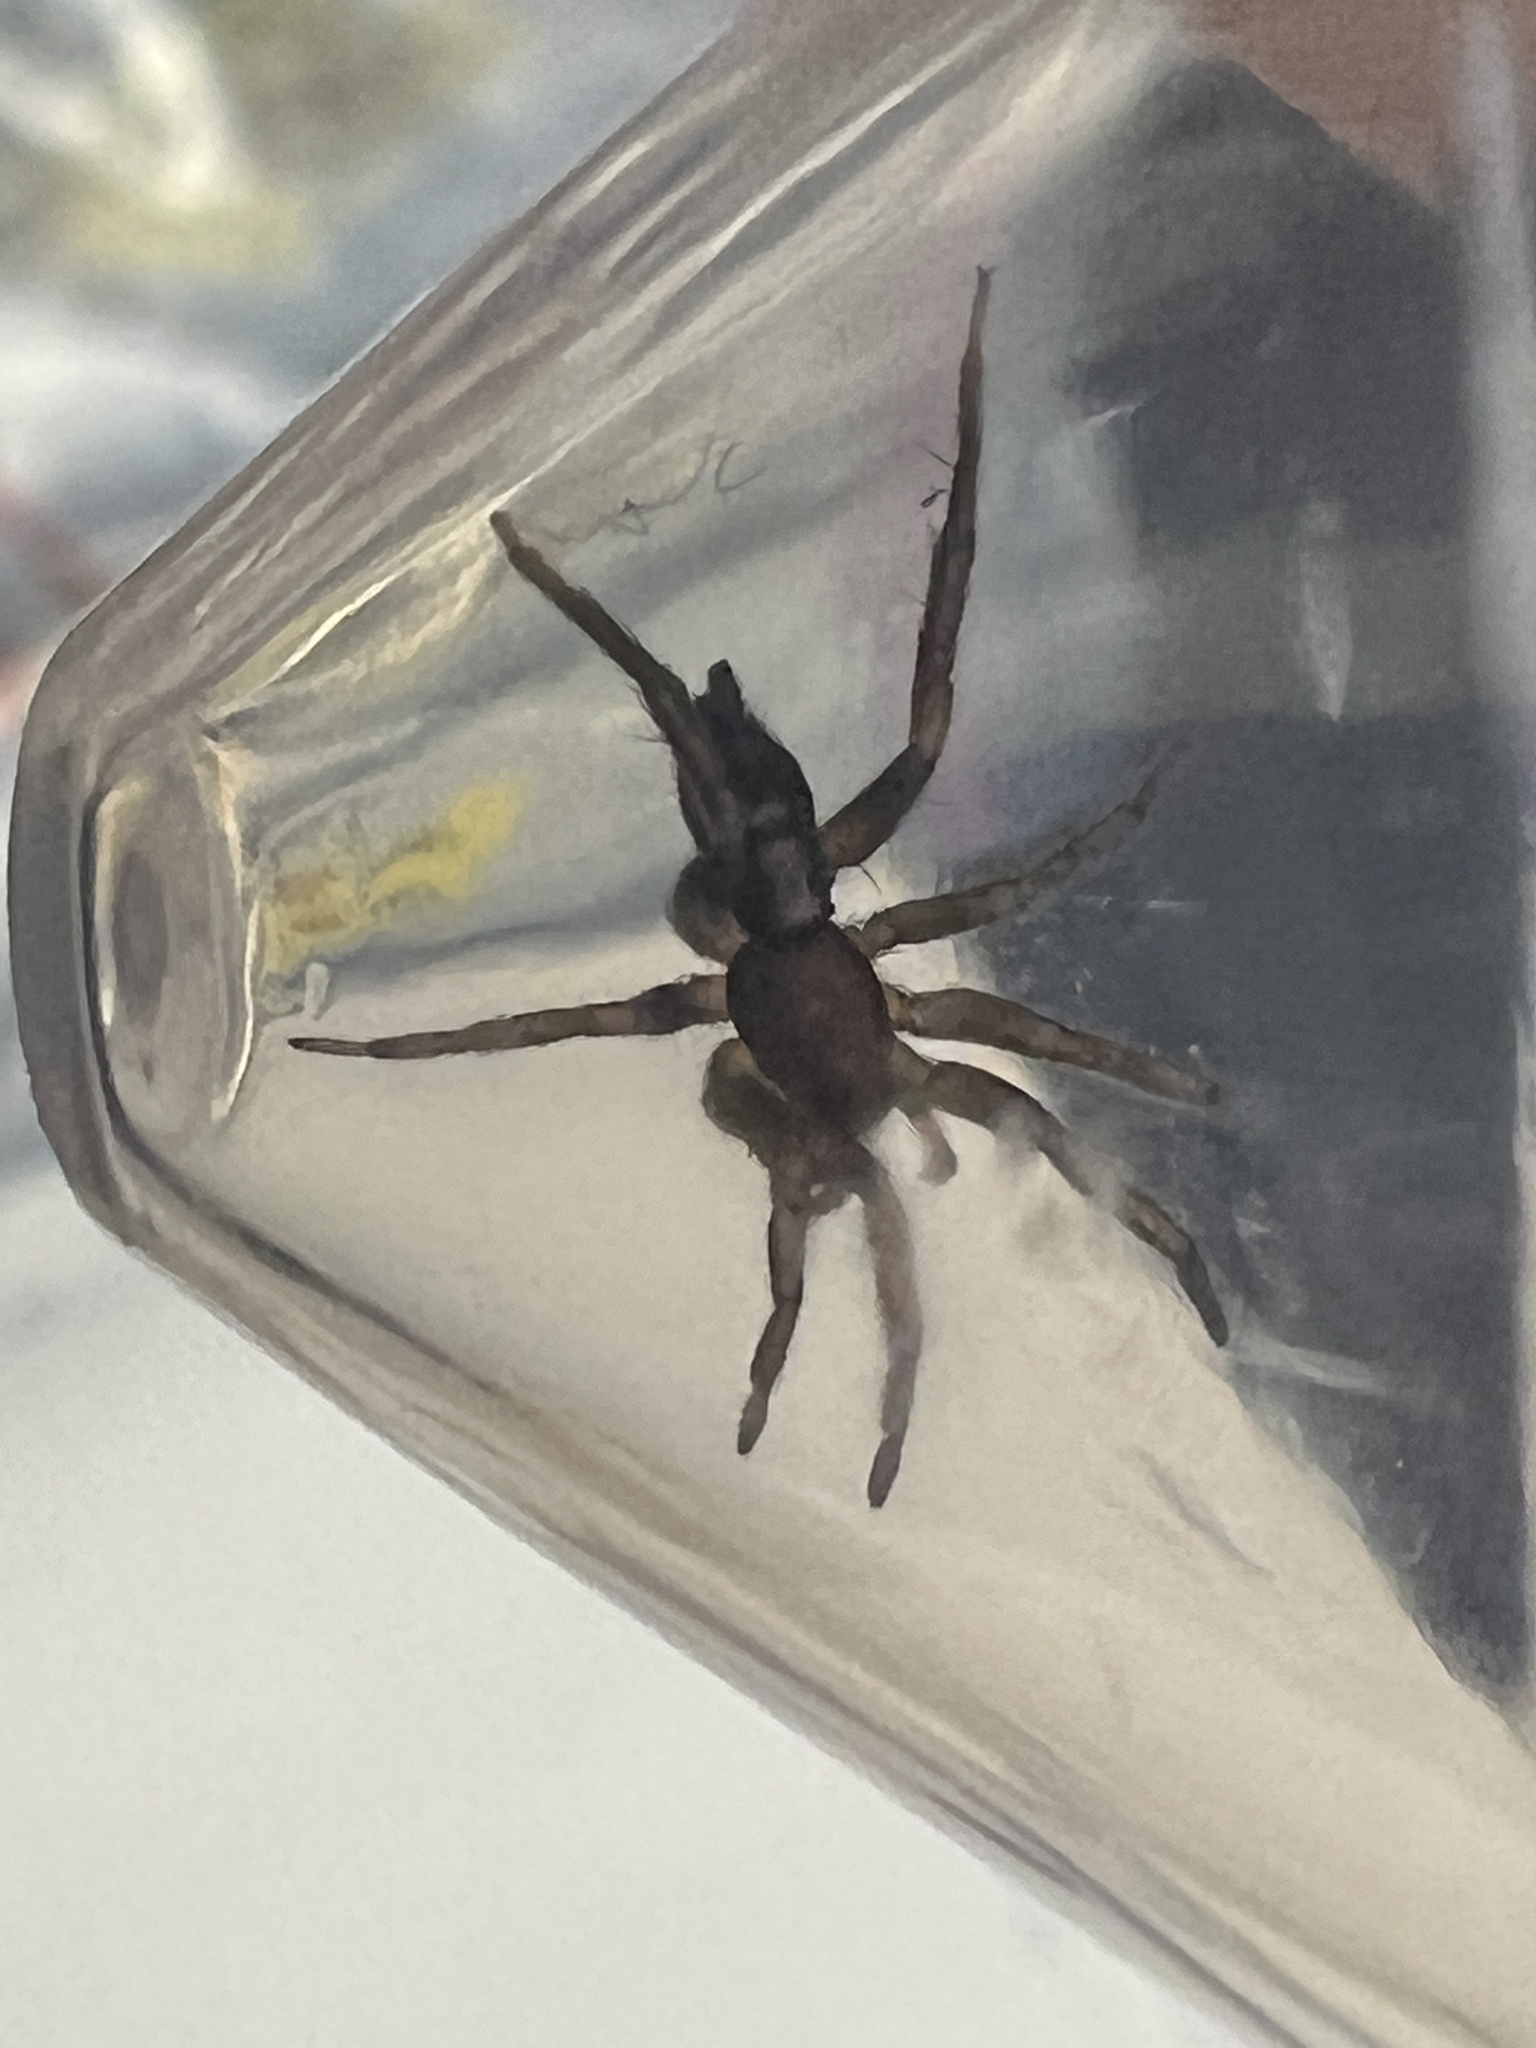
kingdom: Animalia
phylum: Arthropoda
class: Arachnida
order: Araneae
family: Gnaphosidae
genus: Herpyllus
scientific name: Herpyllus ecclesiasticus
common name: Eastern parson spider
